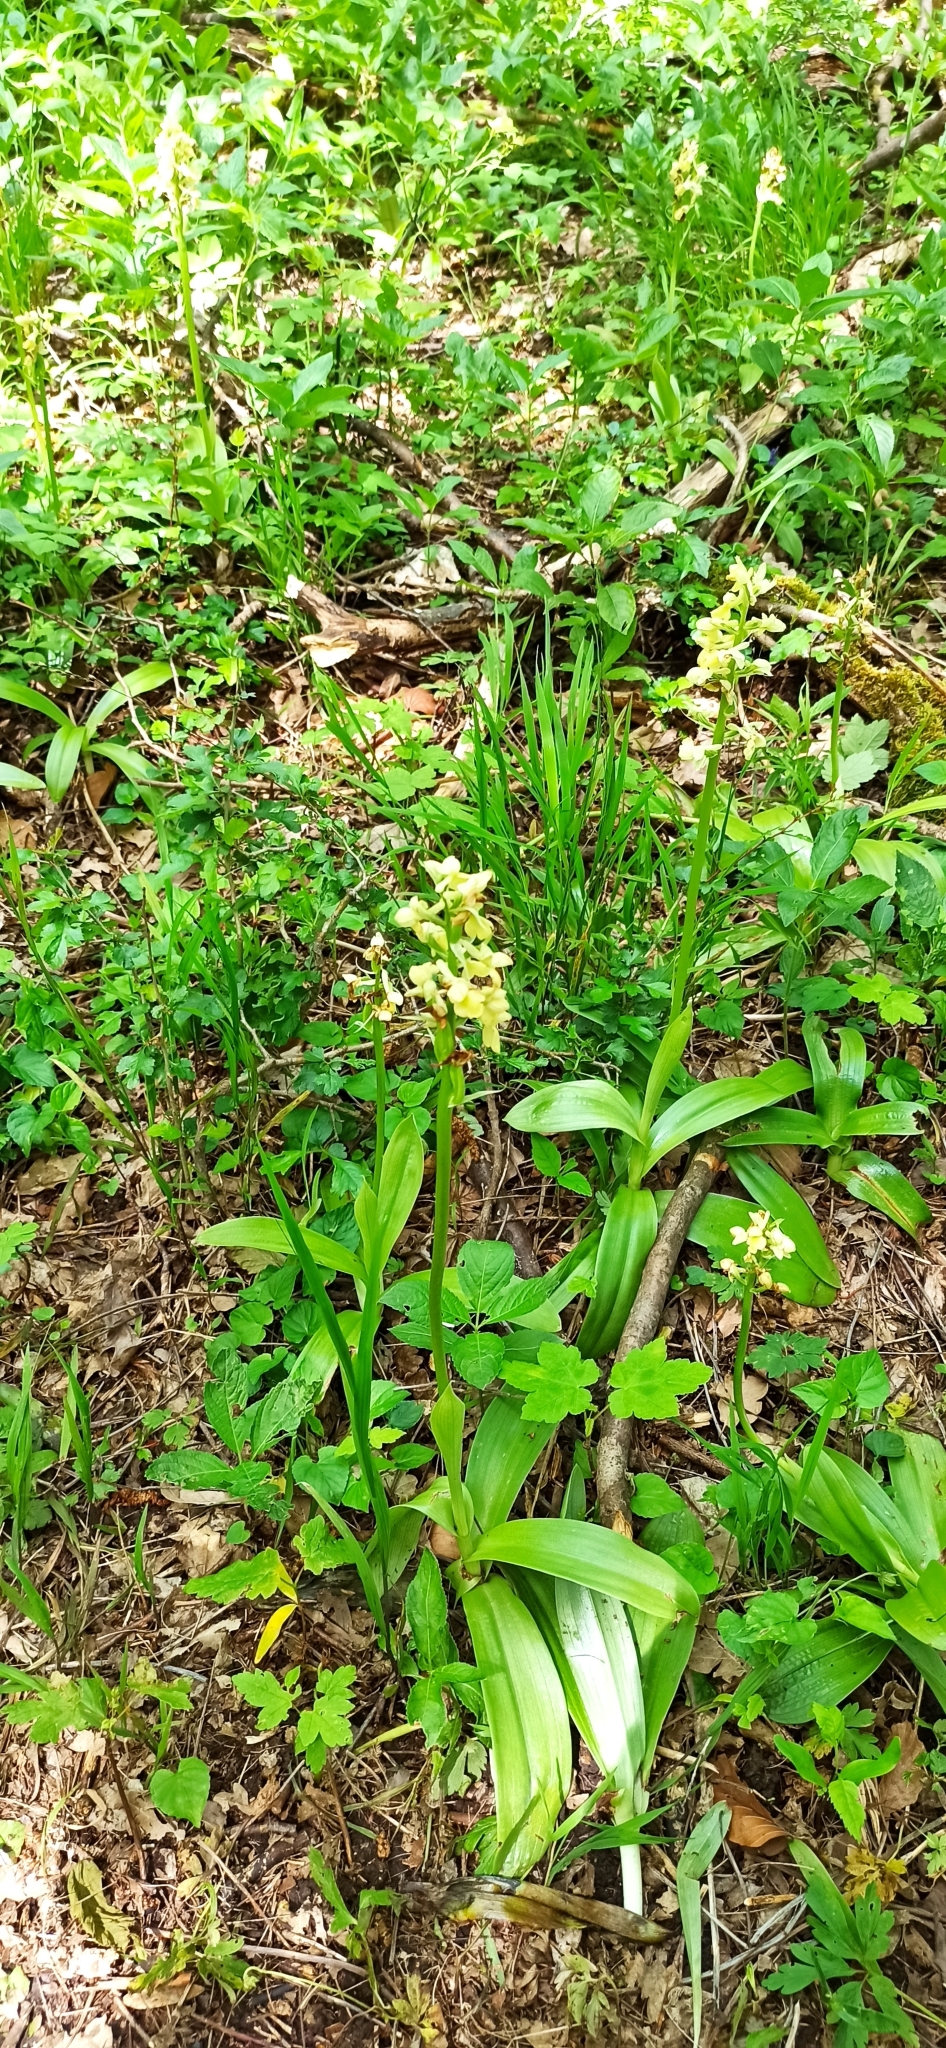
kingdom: Plantae
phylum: Tracheophyta
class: Liliopsida
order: Asparagales
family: Orchidaceae
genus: Orchis
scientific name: Orchis pallens
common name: Pale-flowered orchid
